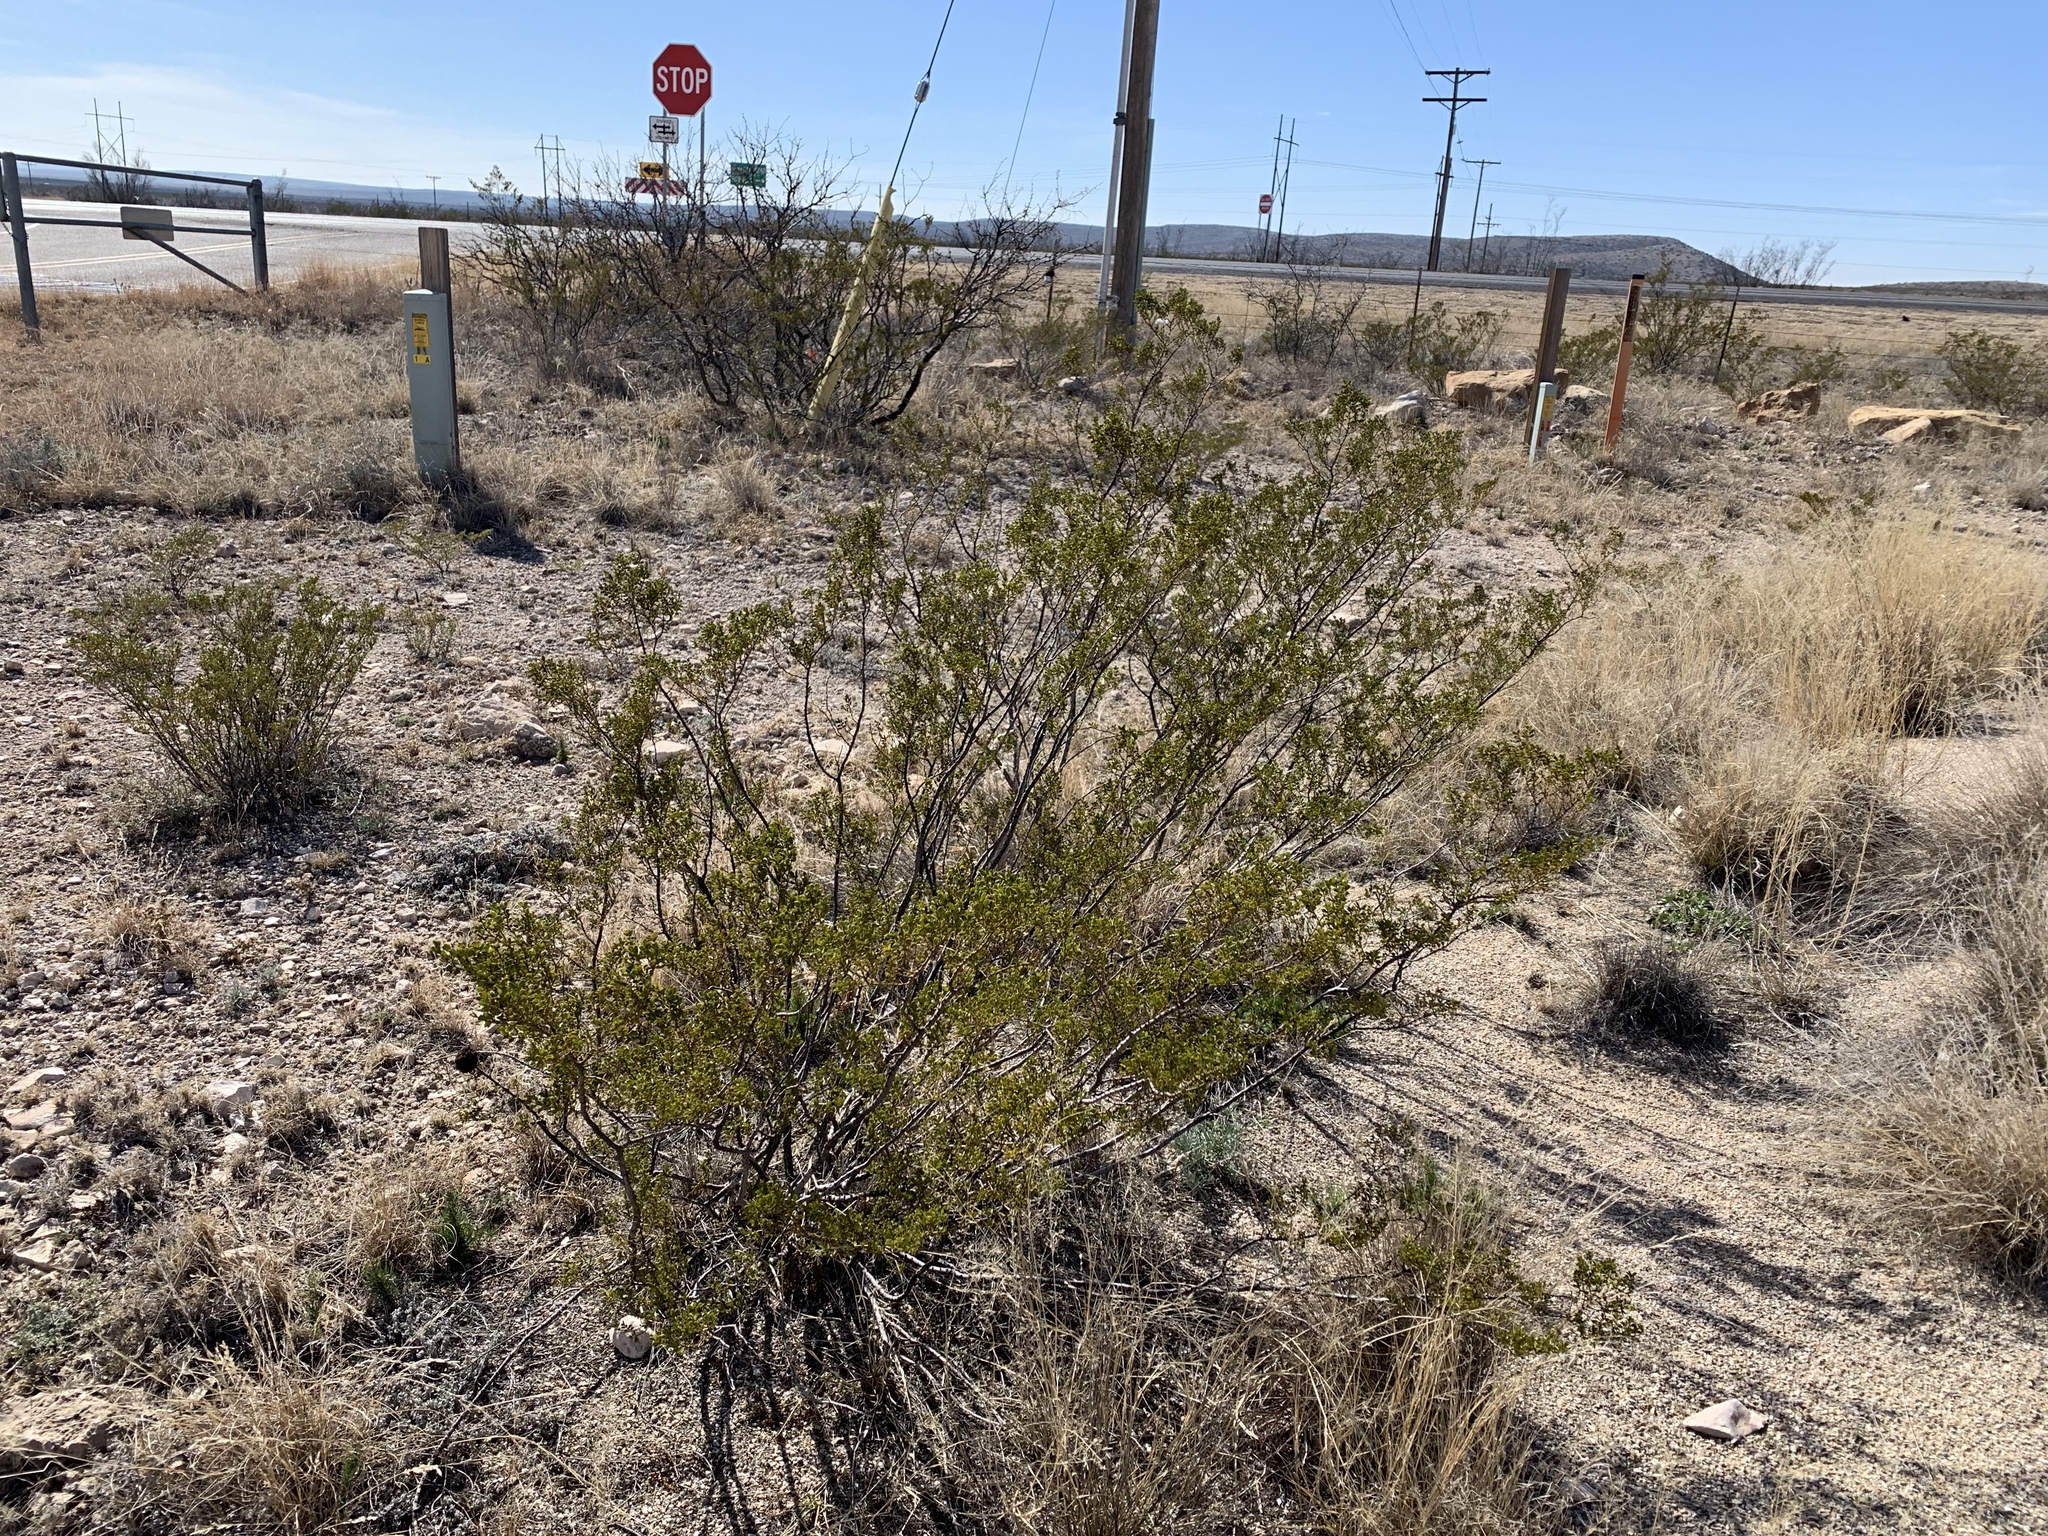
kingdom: Plantae
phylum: Tracheophyta
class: Magnoliopsida
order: Zygophyllales
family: Zygophyllaceae
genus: Larrea
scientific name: Larrea tridentata
